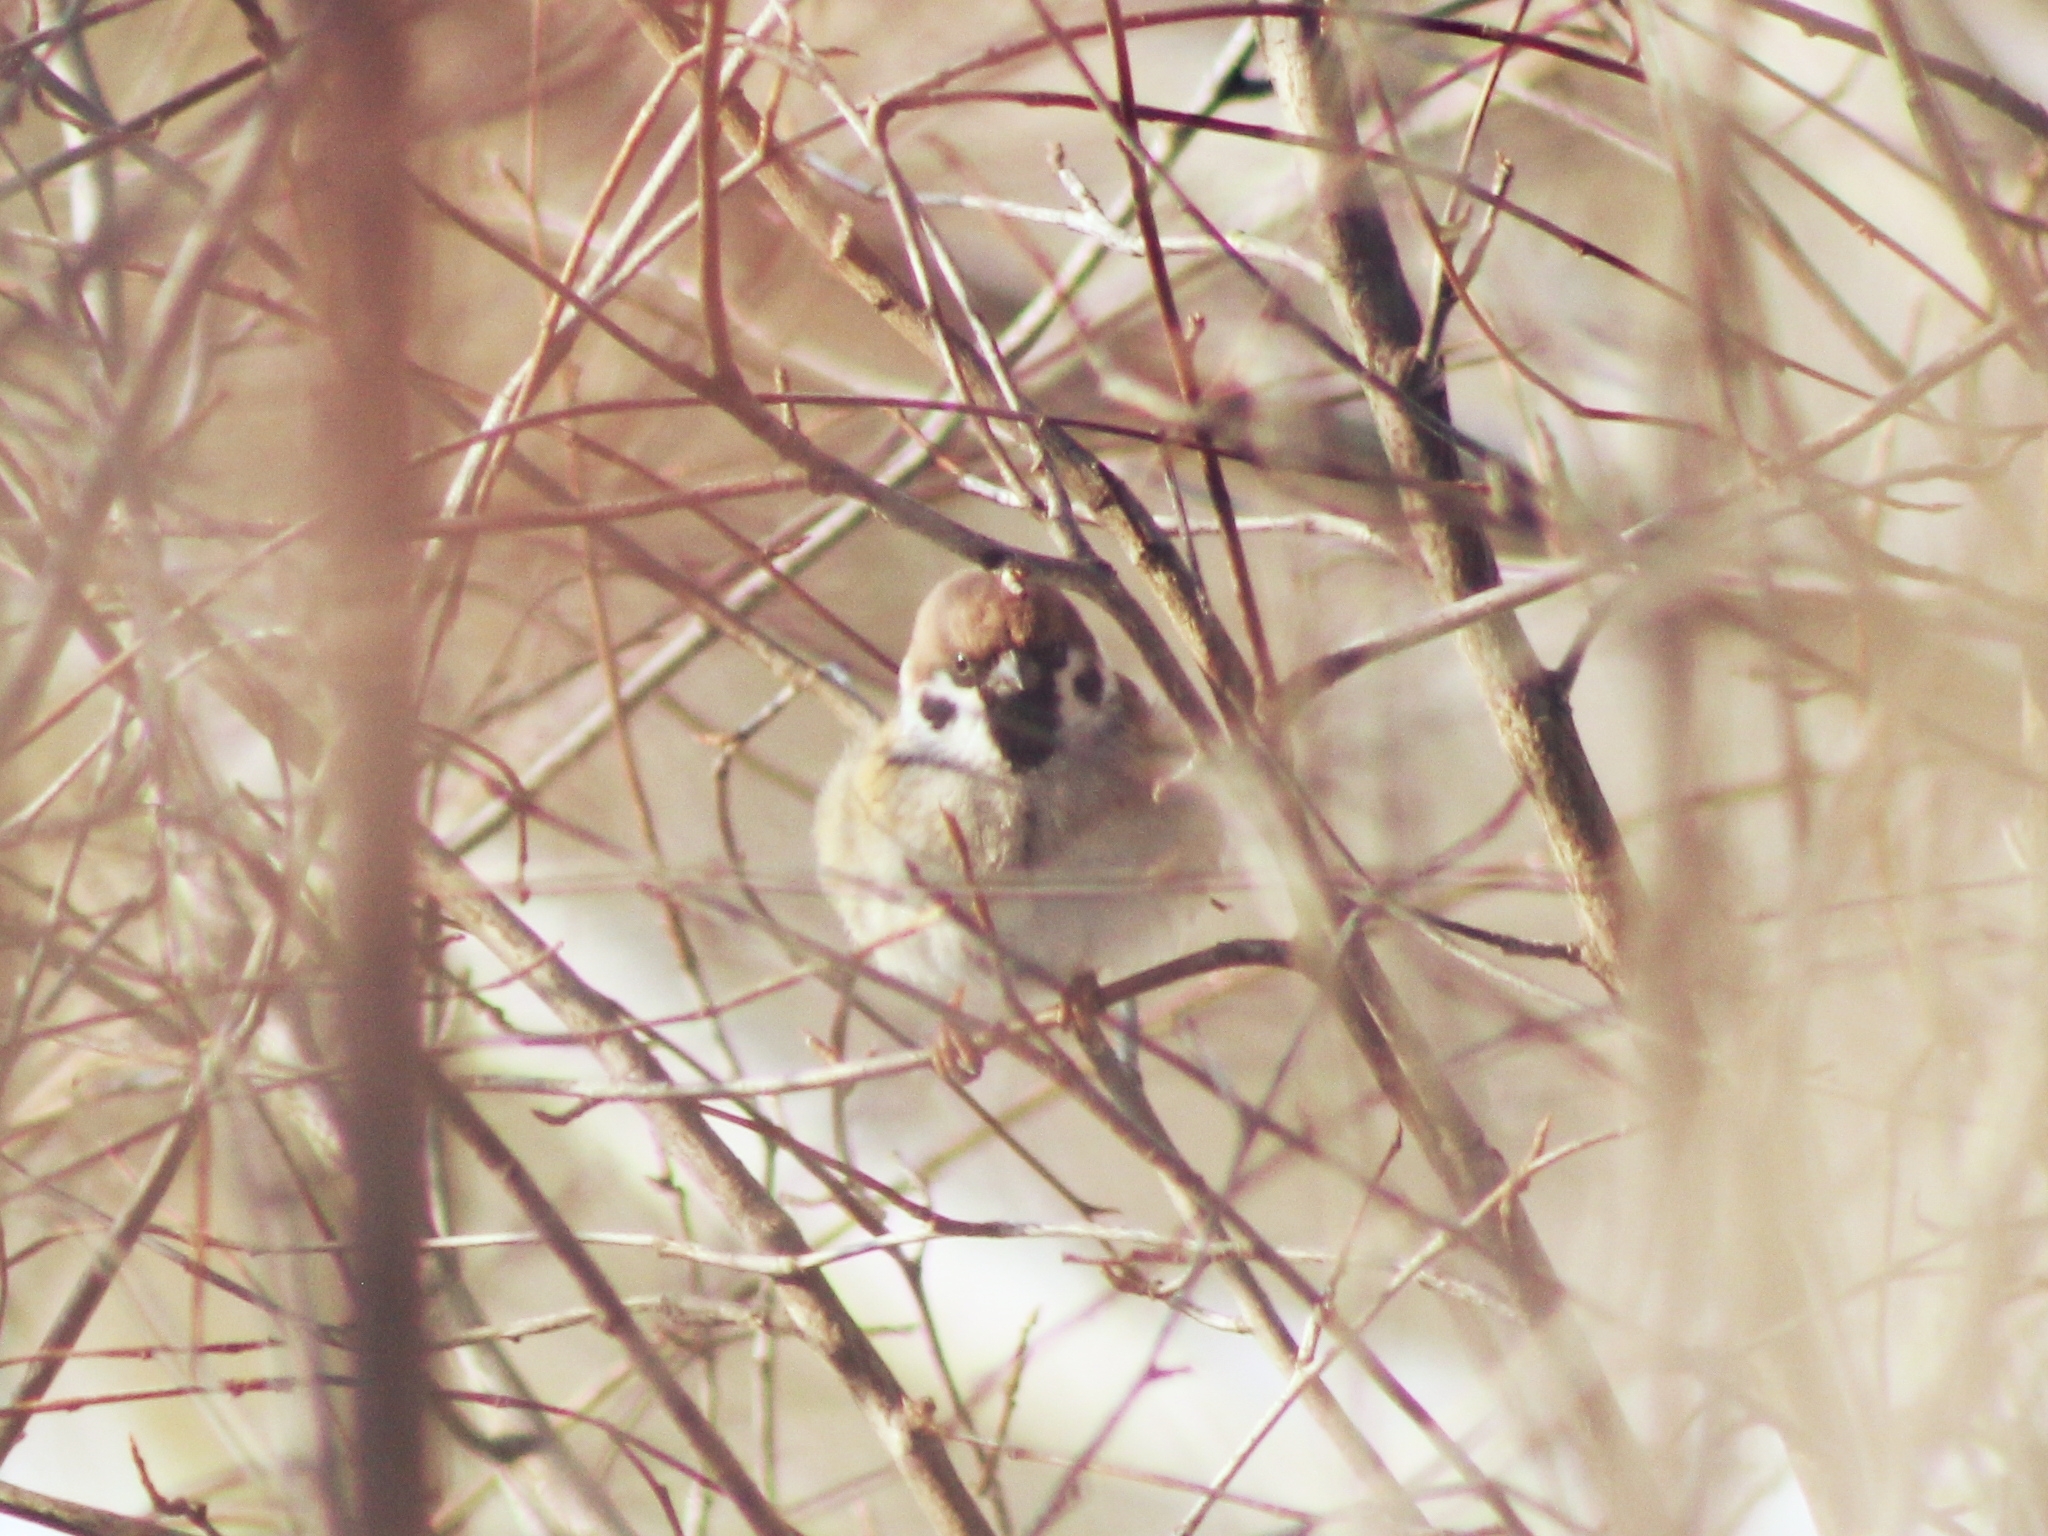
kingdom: Animalia
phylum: Chordata
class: Aves
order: Passeriformes
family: Passeridae
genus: Passer
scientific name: Passer montanus
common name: Eurasian tree sparrow
